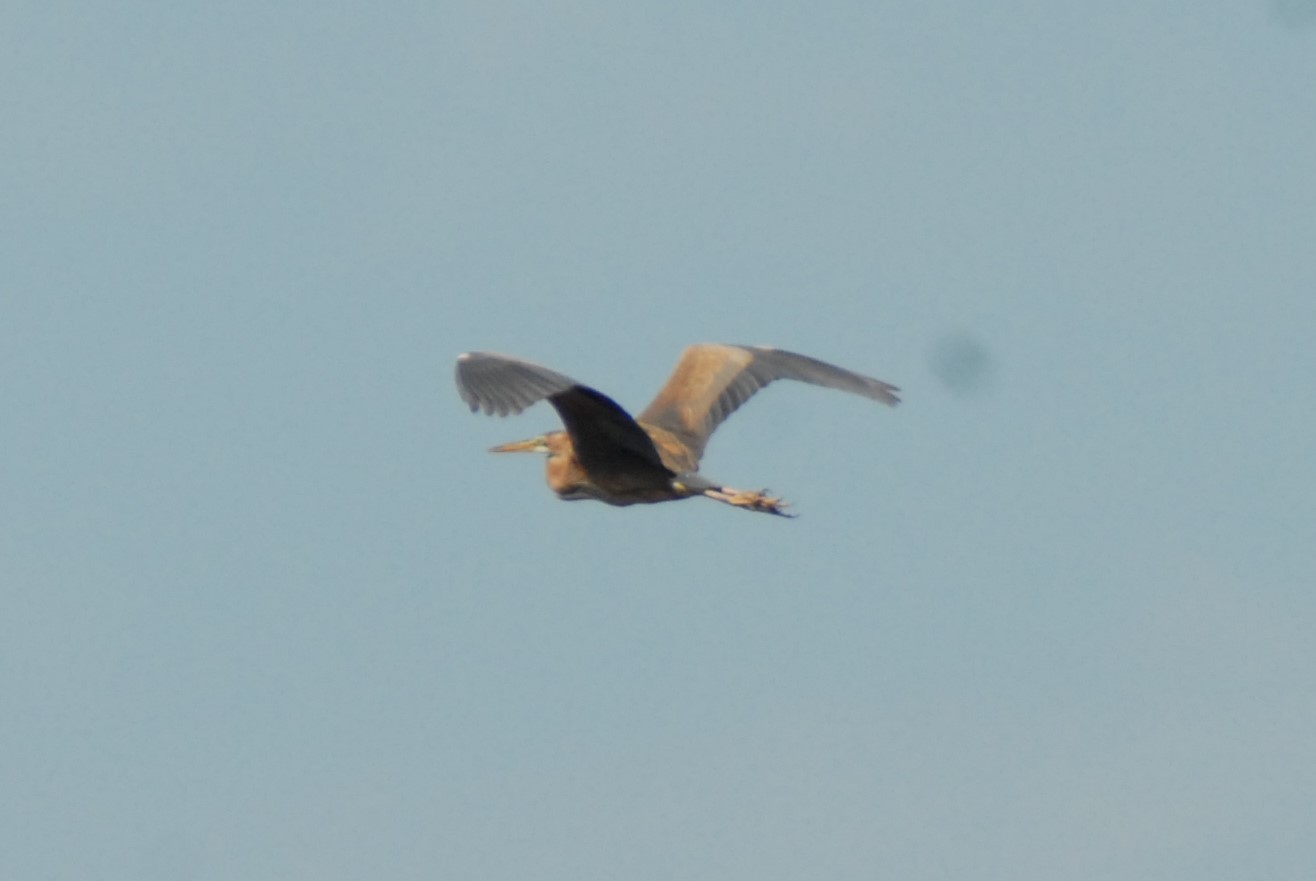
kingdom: Animalia
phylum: Chordata
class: Aves
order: Pelecaniformes
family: Ardeidae
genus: Ardea
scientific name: Ardea purpurea
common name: Purple heron
